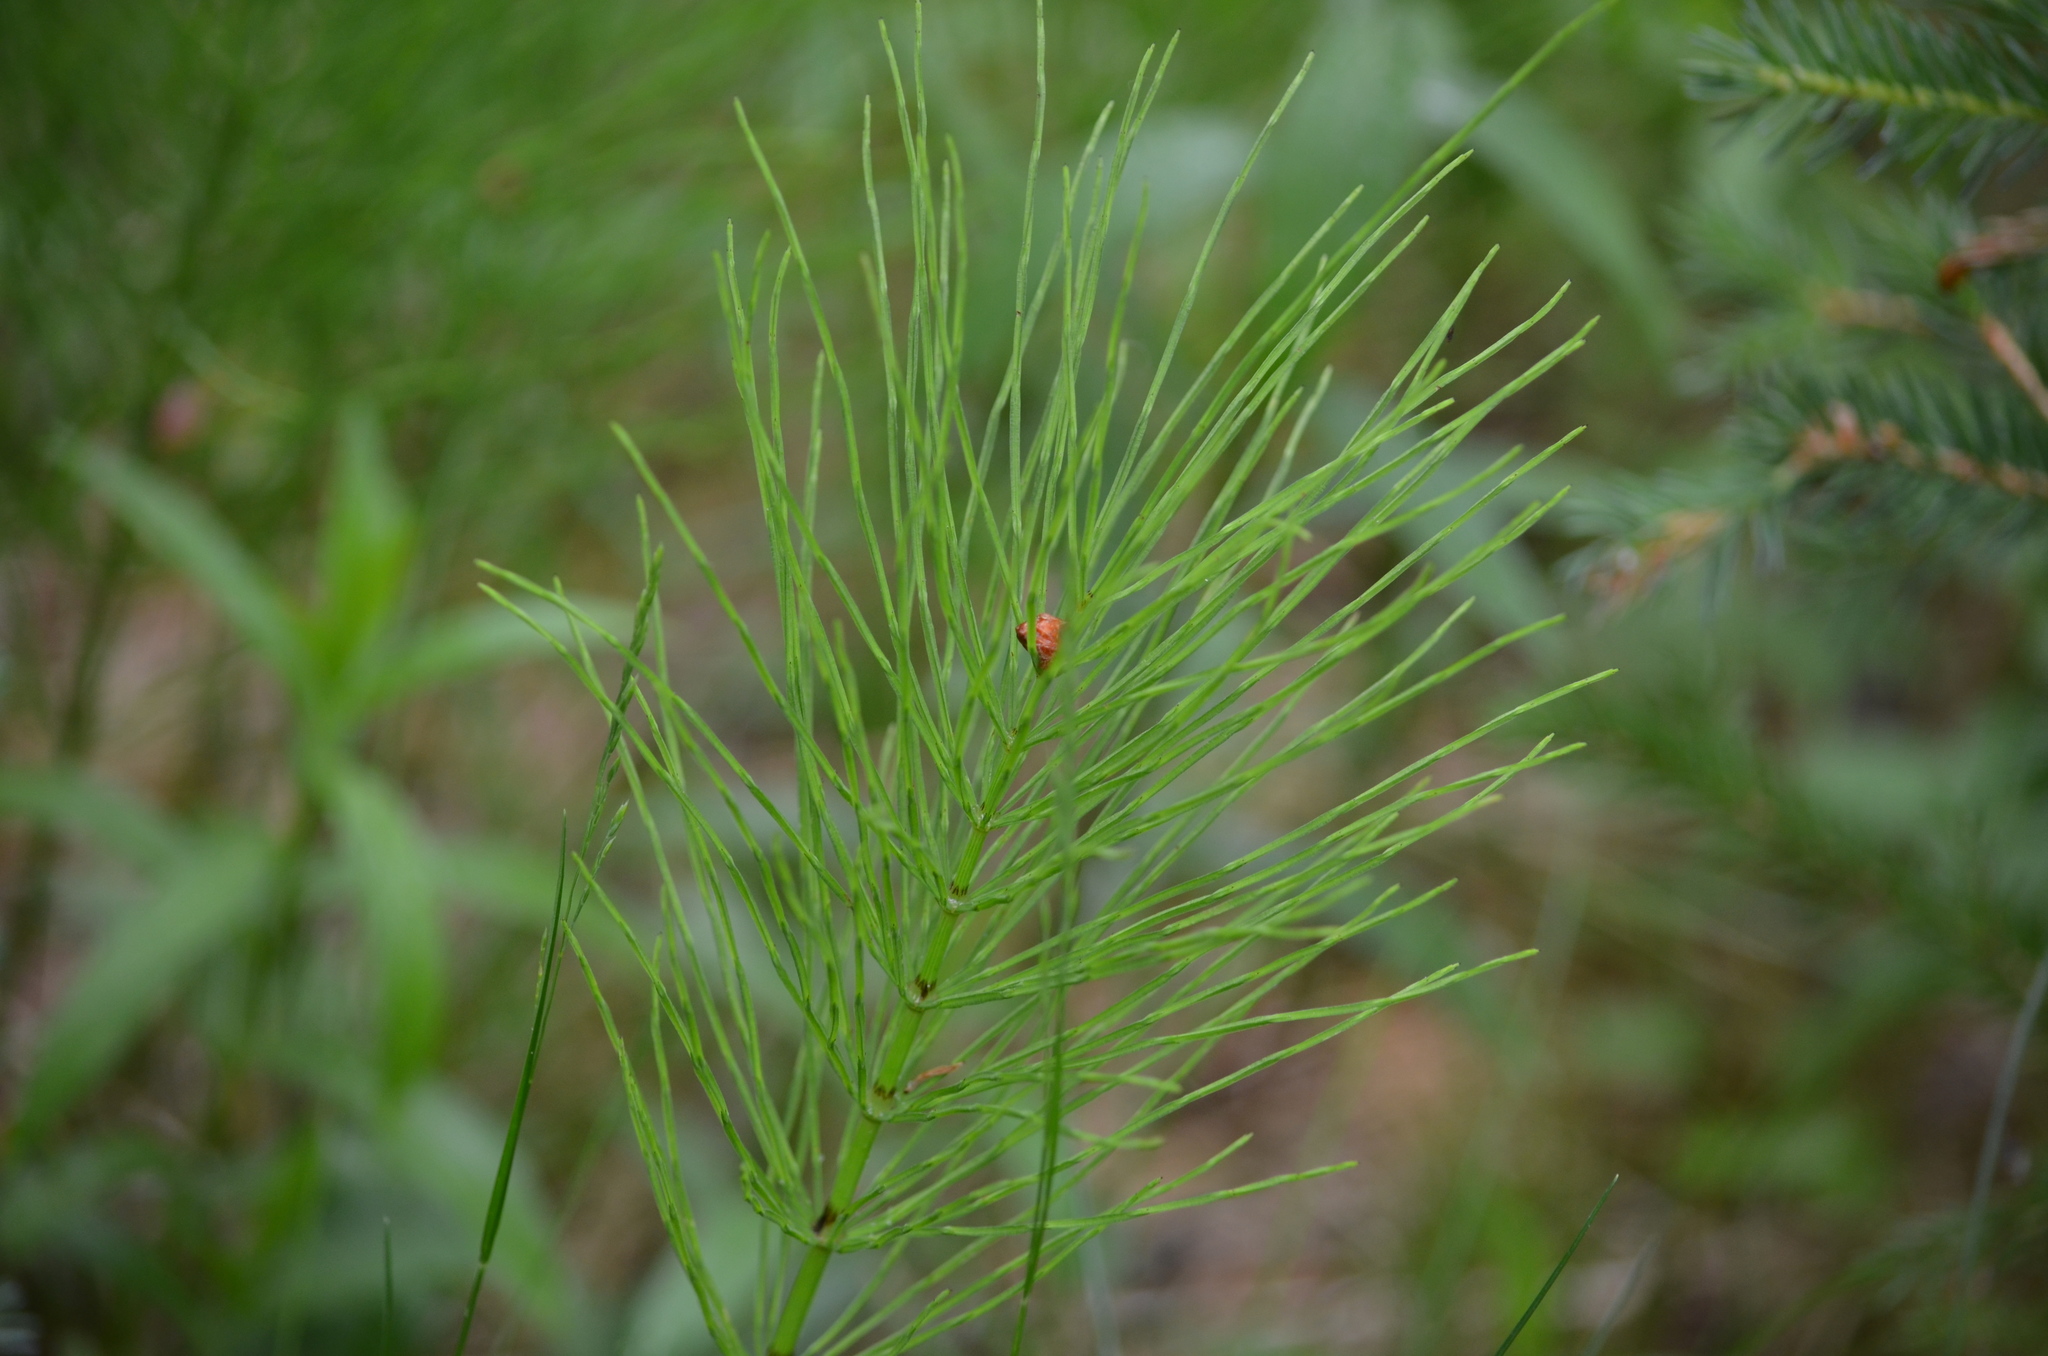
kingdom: Plantae
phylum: Tracheophyta
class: Polypodiopsida
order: Equisetales
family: Equisetaceae
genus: Equisetum
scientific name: Equisetum arvense
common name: Field horsetail
